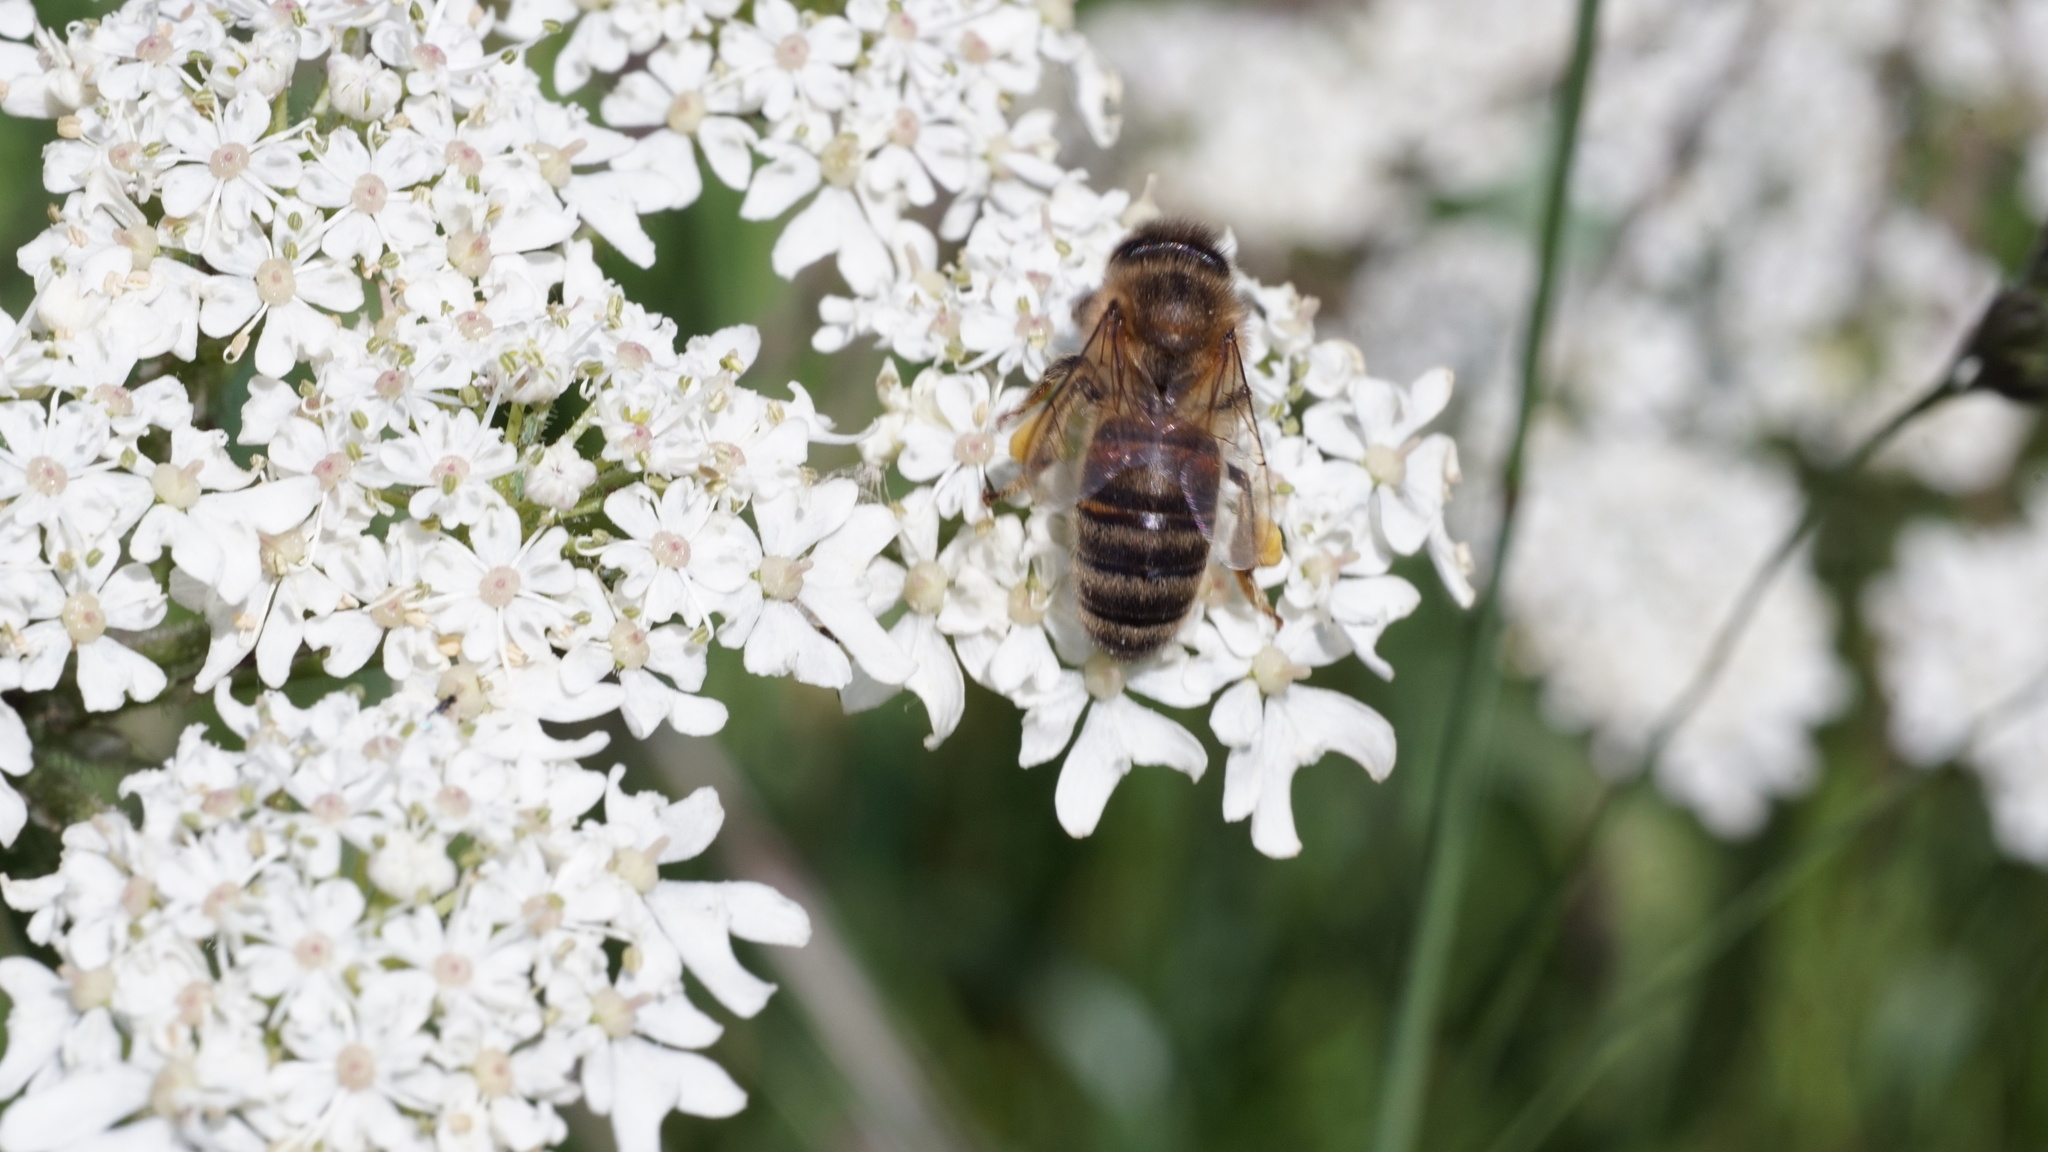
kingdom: Animalia
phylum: Arthropoda
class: Insecta
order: Hymenoptera
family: Apidae
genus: Apis
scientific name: Apis mellifera
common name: Honey bee
